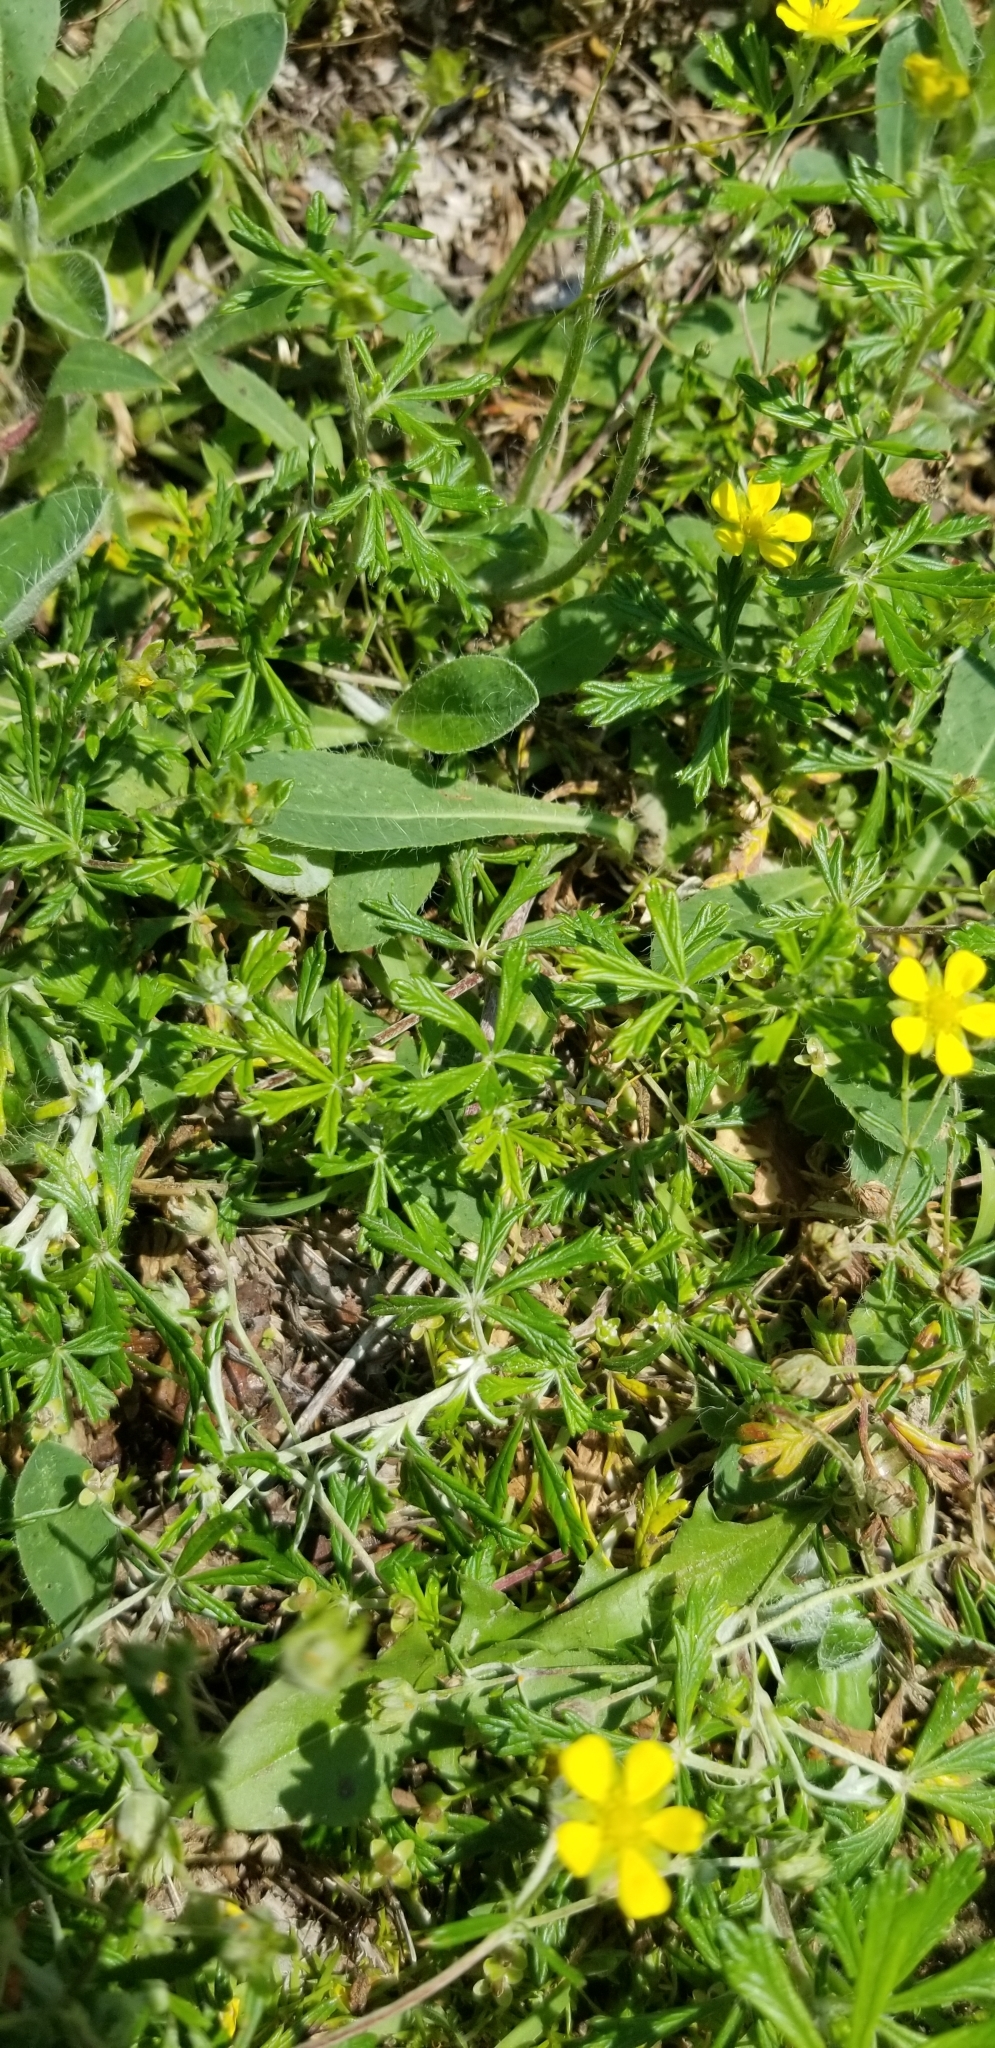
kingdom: Plantae
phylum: Tracheophyta
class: Magnoliopsida
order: Rosales
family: Rosaceae
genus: Potentilla
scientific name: Potentilla argentea
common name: Hoary cinquefoil
